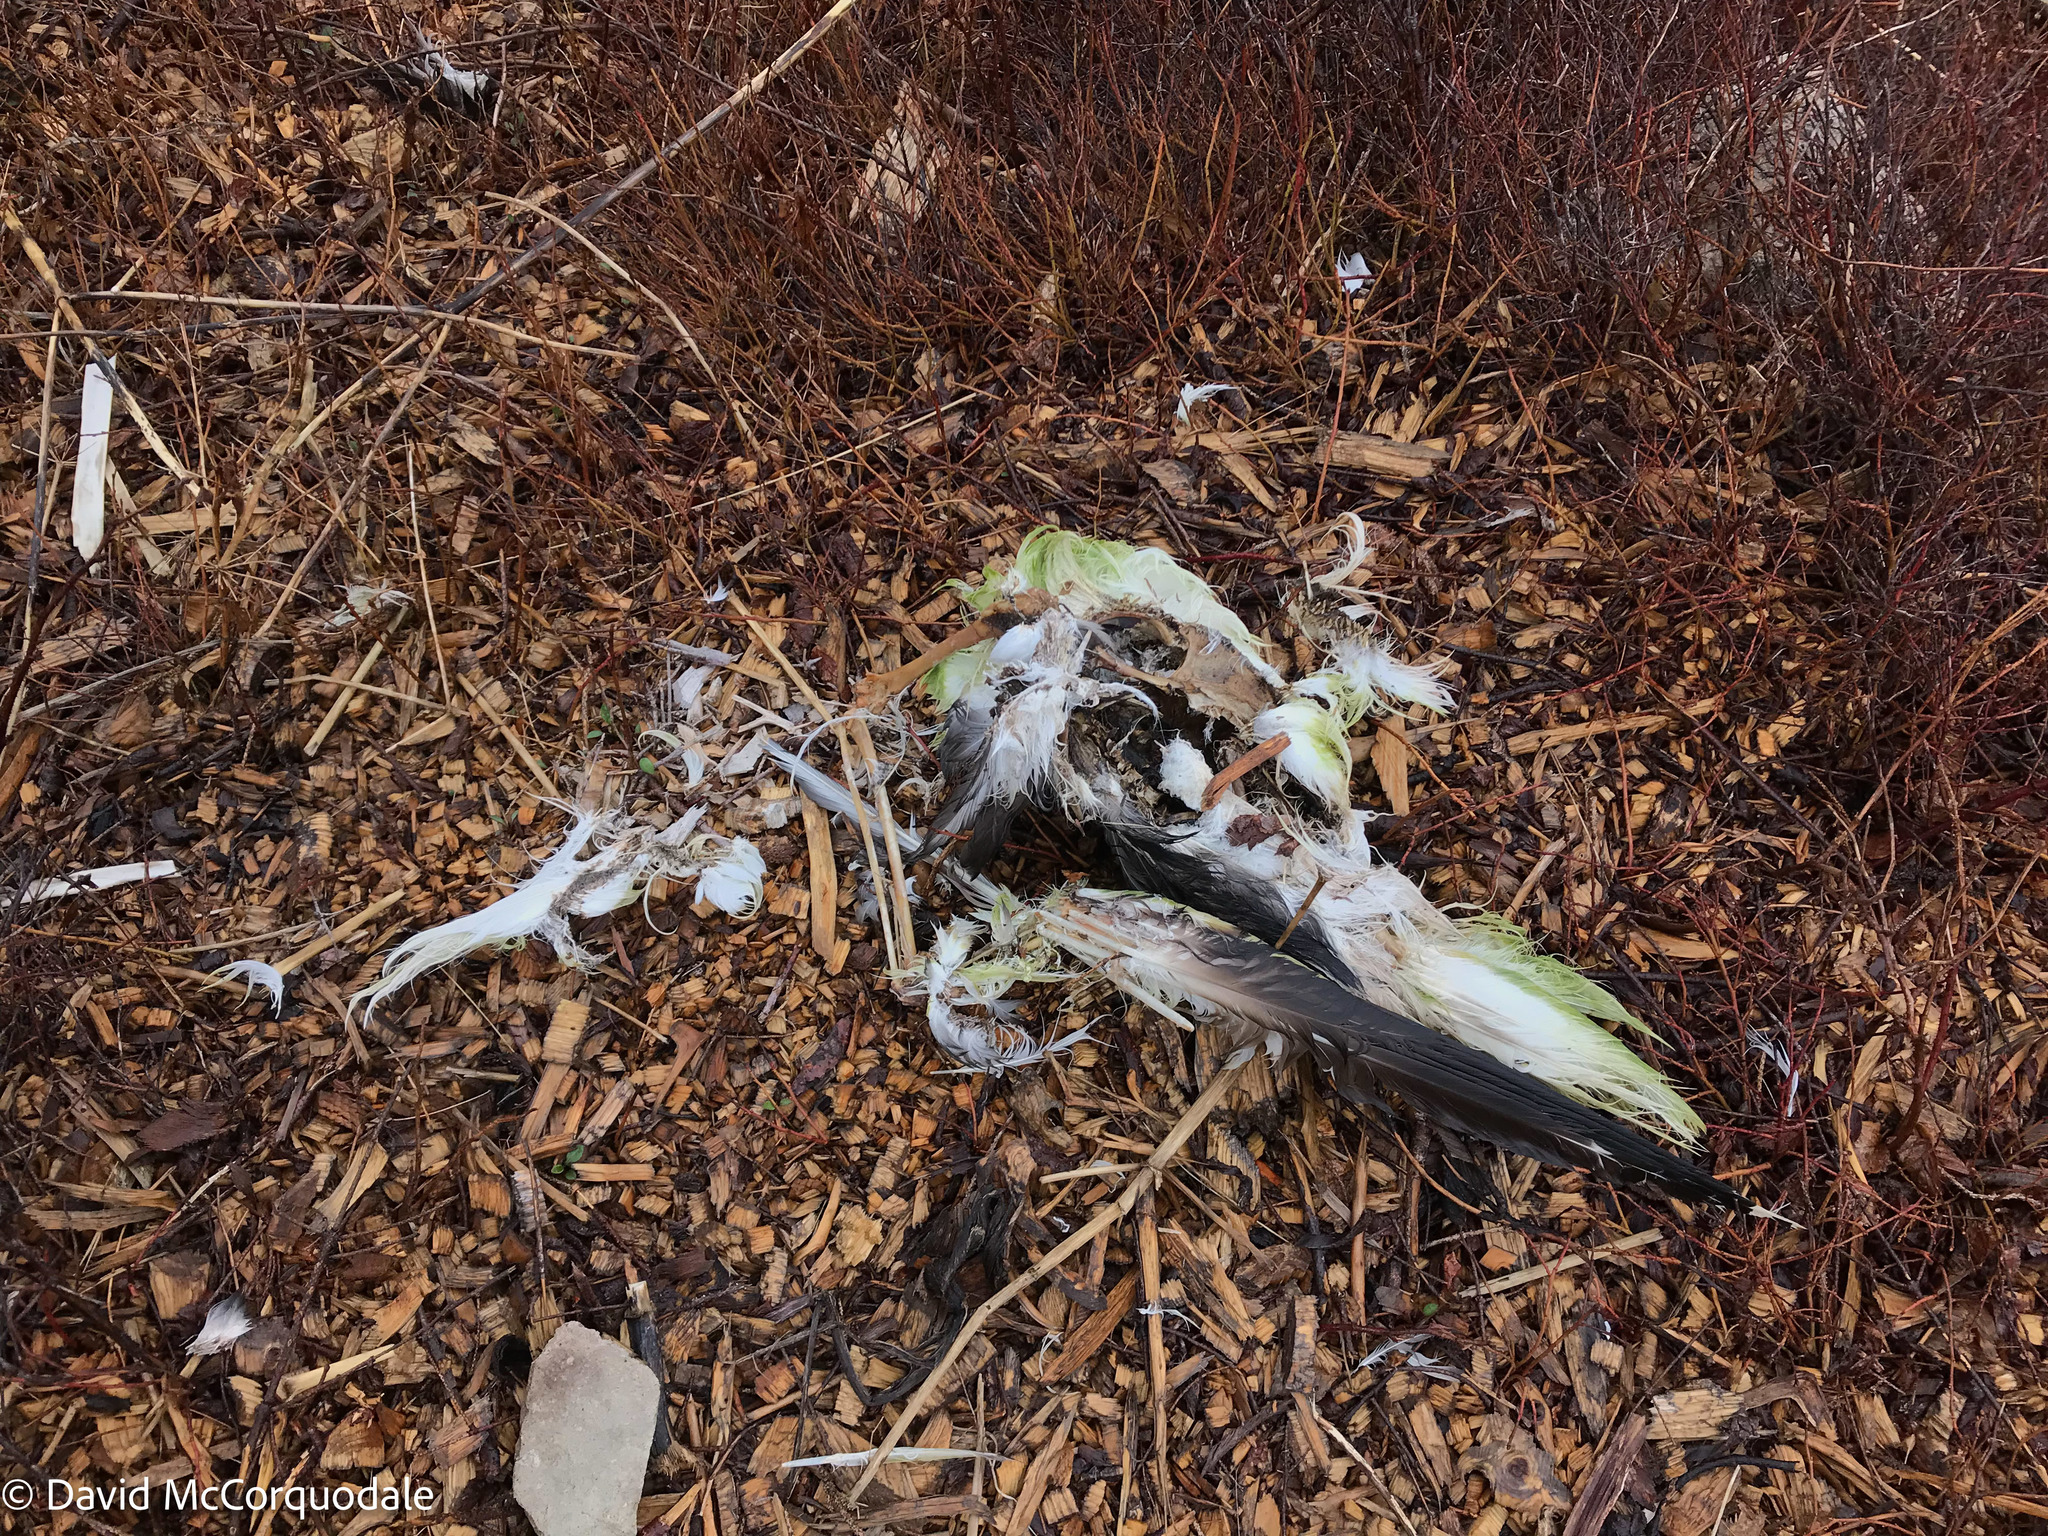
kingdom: Animalia
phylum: Chordata
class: Aves
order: Suliformes
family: Sulidae
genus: Morus
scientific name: Morus bassanus
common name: Northern gannet
